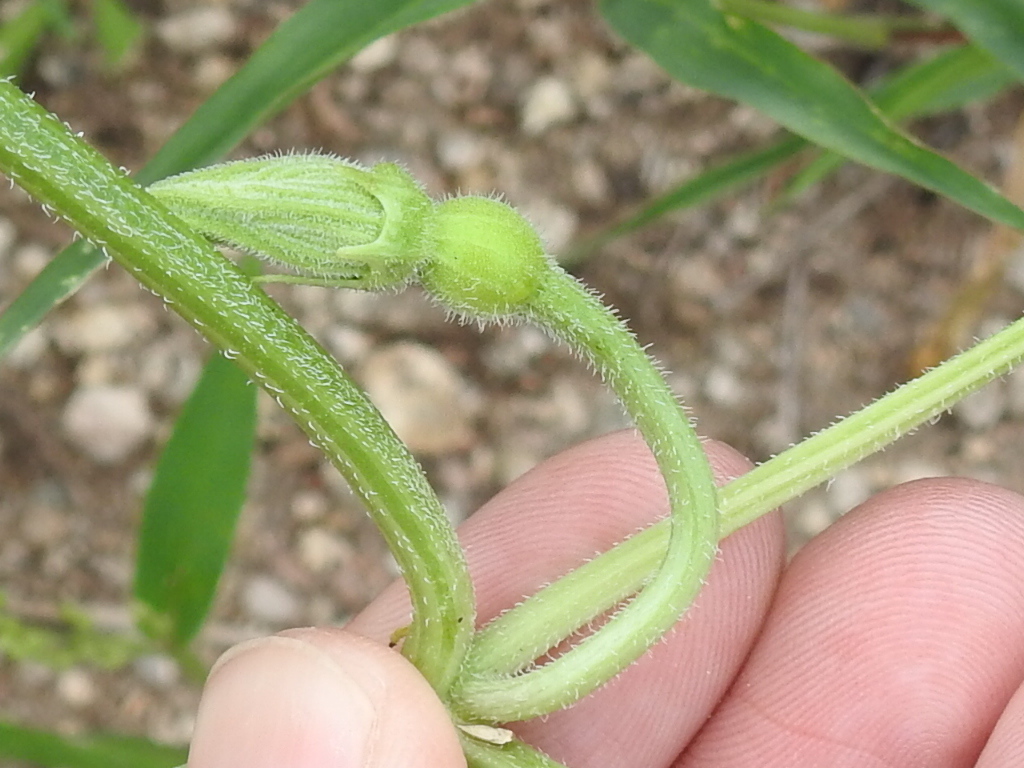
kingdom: Plantae
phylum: Tracheophyta
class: Magnoliopsida
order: Cucurbitales
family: Cucurbitaceae
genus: Cucurbita
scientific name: Cucurbita digitata
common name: Finger-leaf gourd
